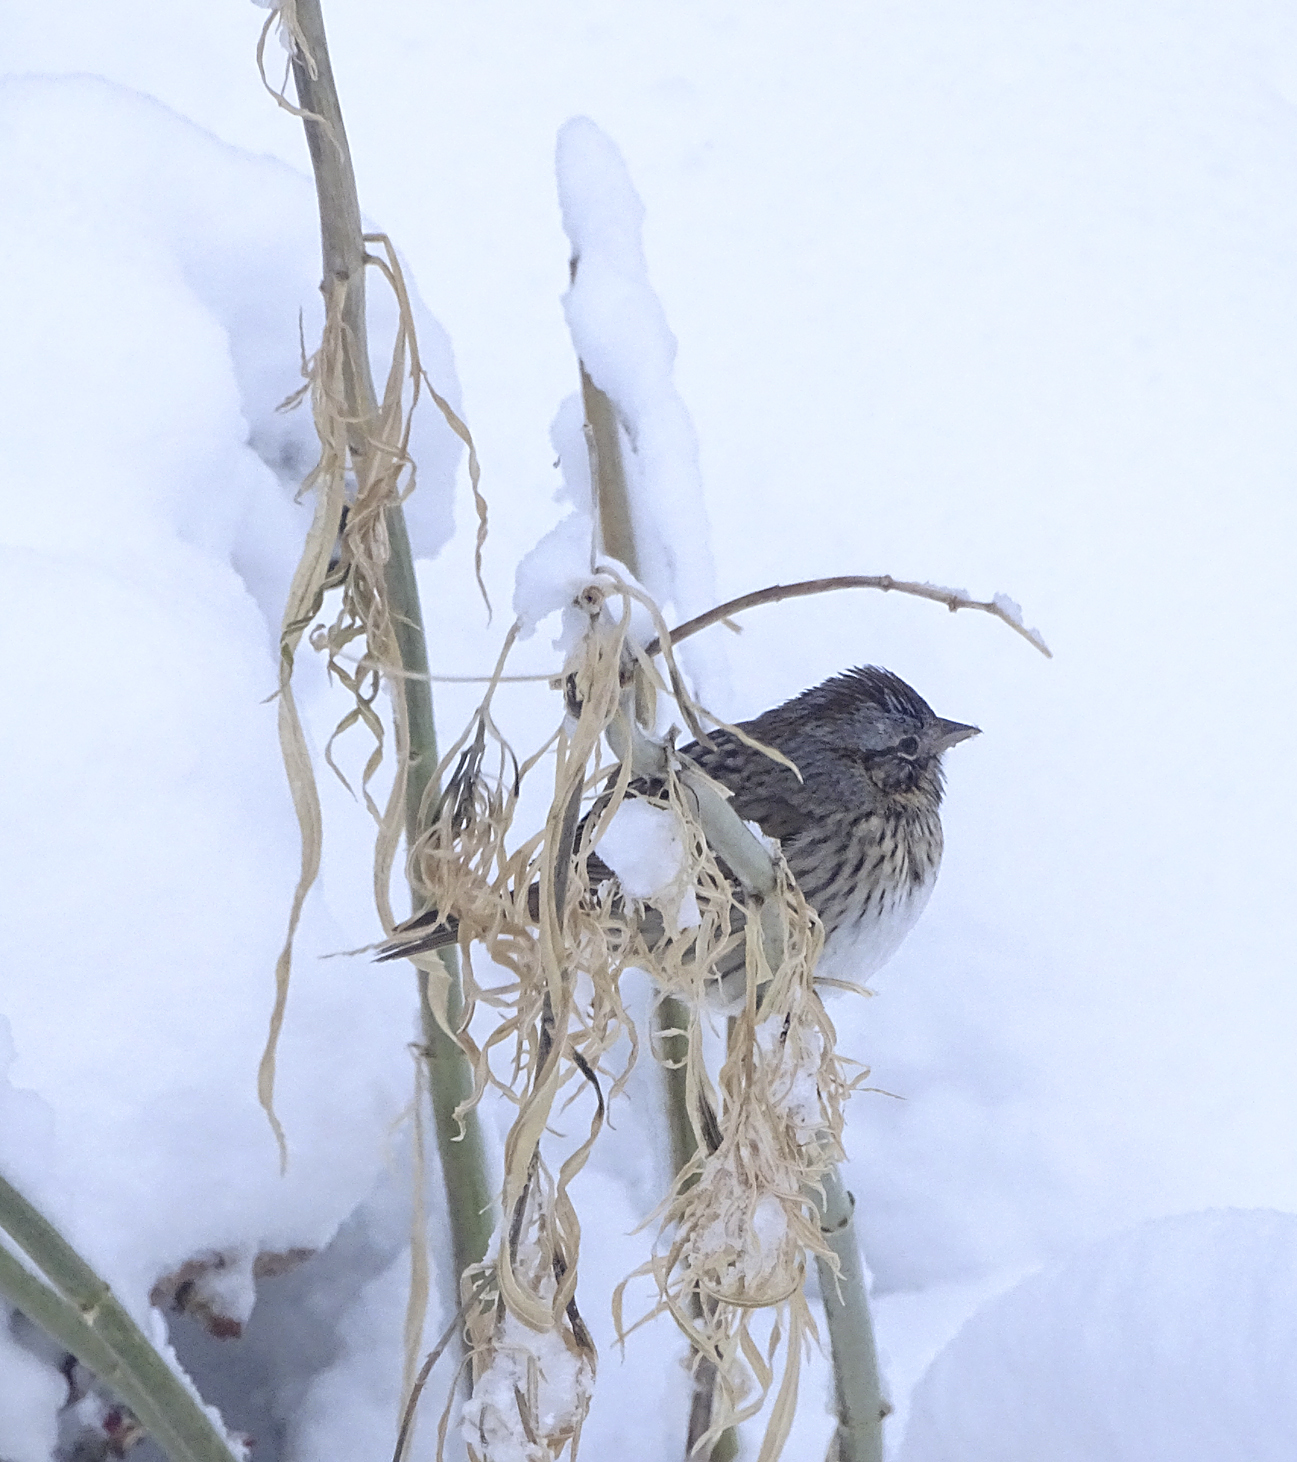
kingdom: Animalia
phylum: Chordata
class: Aves
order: Passeriformes
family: Passerellidae
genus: Melospiza
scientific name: Melospiza lincolnii
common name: Lincoln's sparrow
